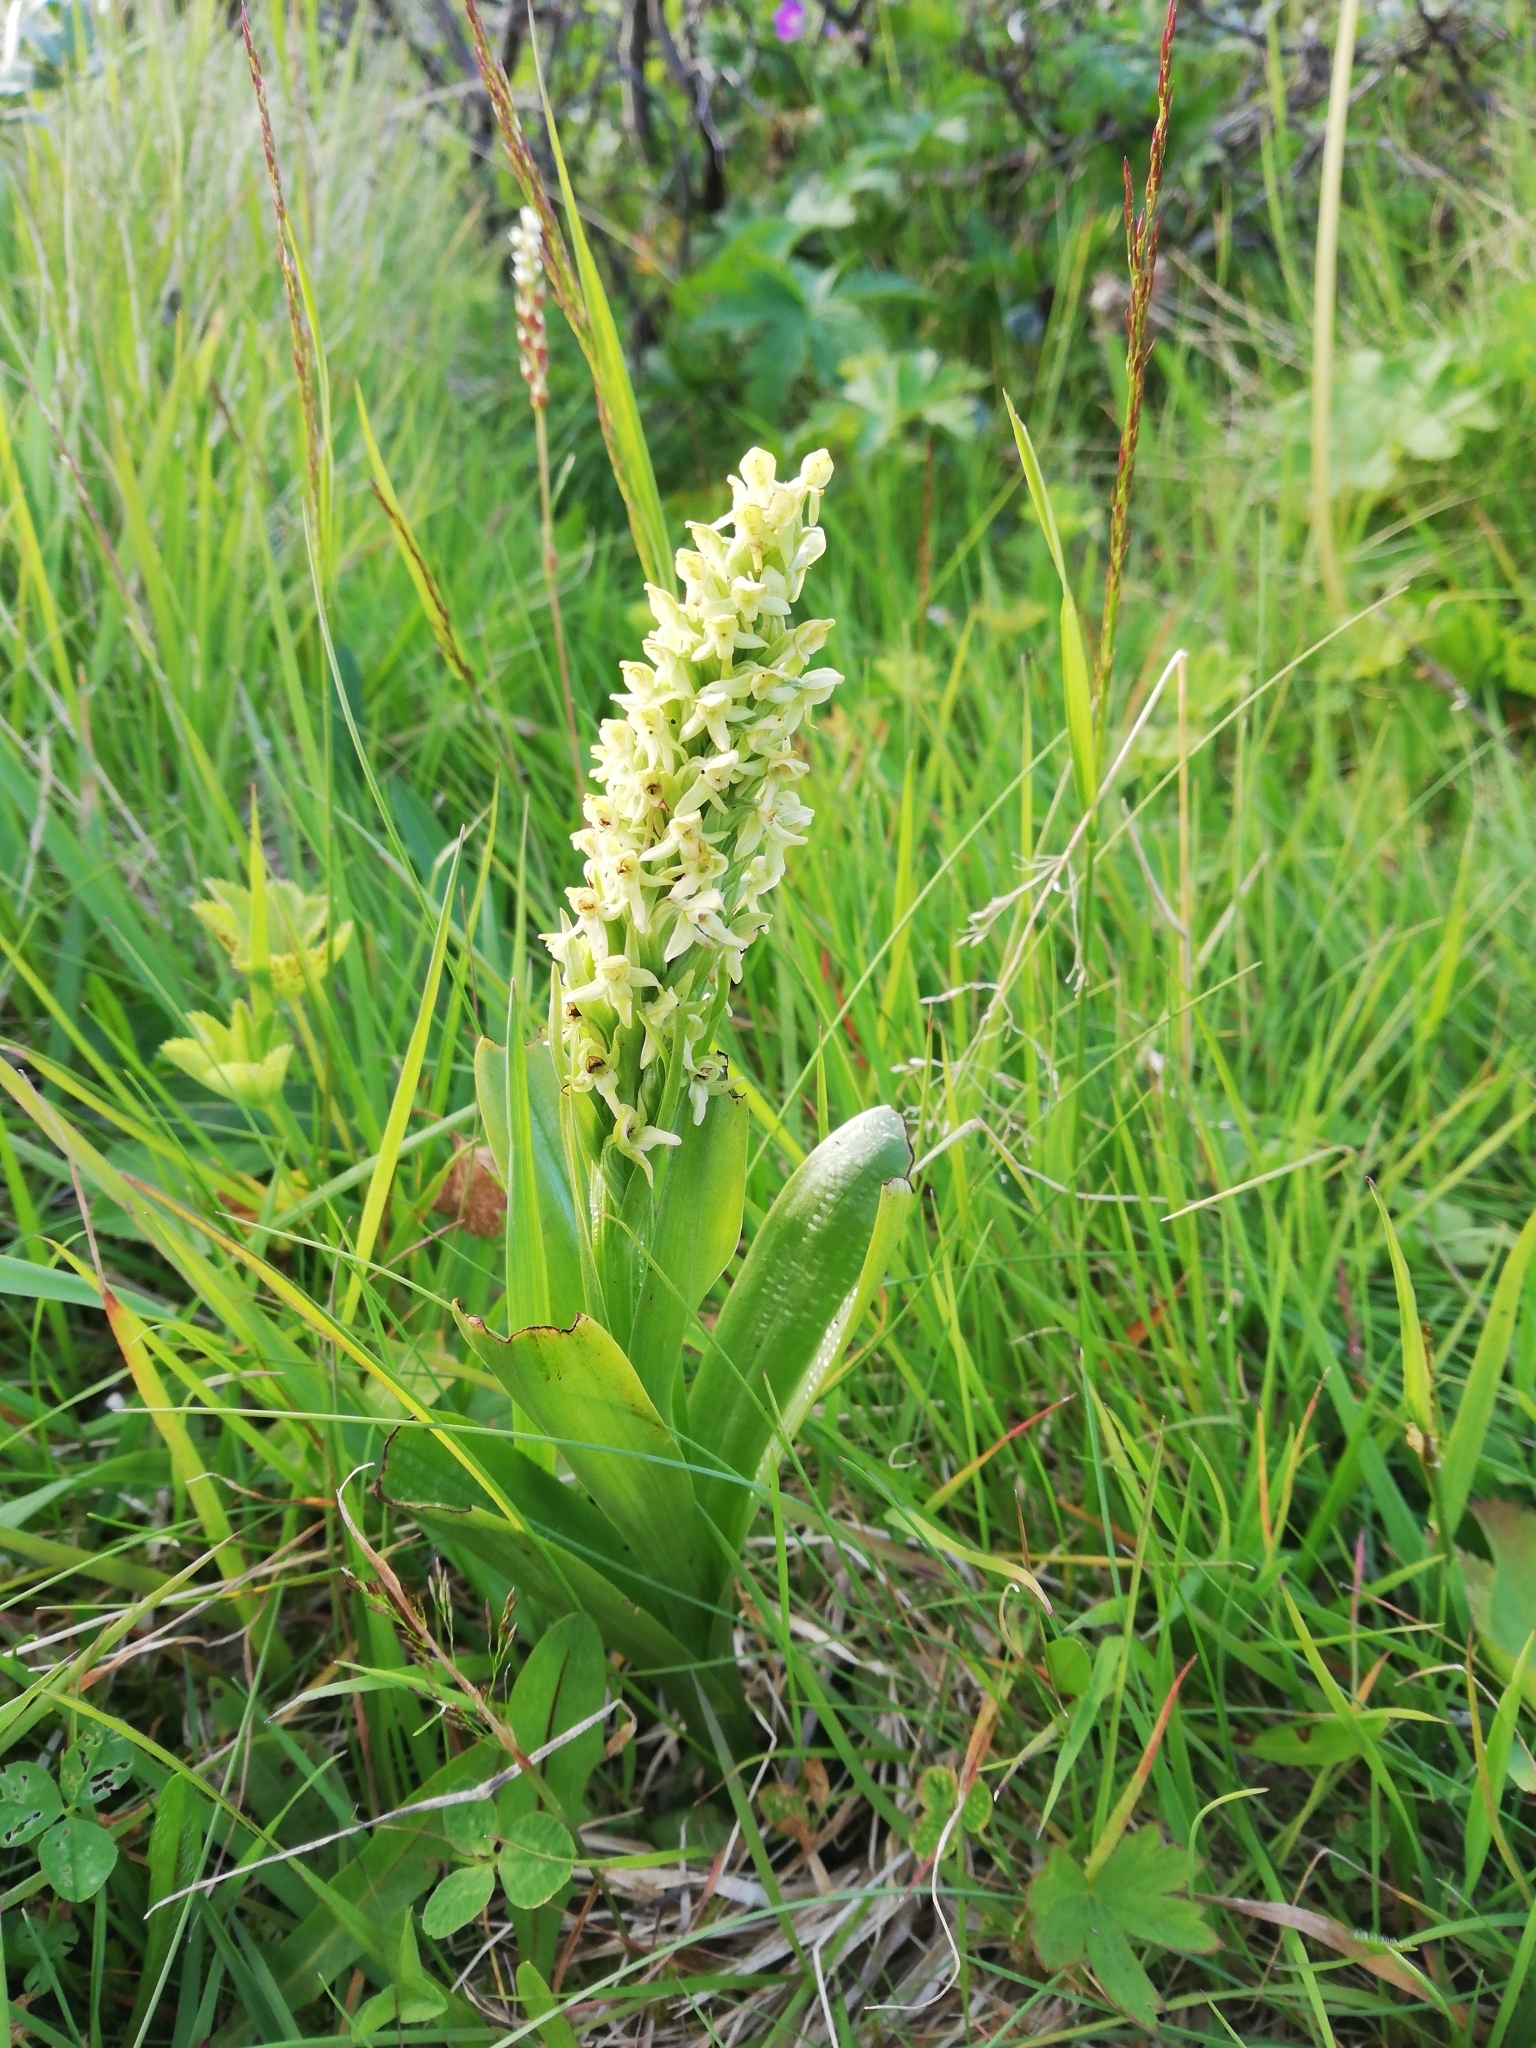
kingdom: Plantae
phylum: Tracheophyta
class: Liliopsida
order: Asparagales
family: Orchidaceae
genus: Platanthera
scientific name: Platanthera hyperborea
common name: Northern green orchid
